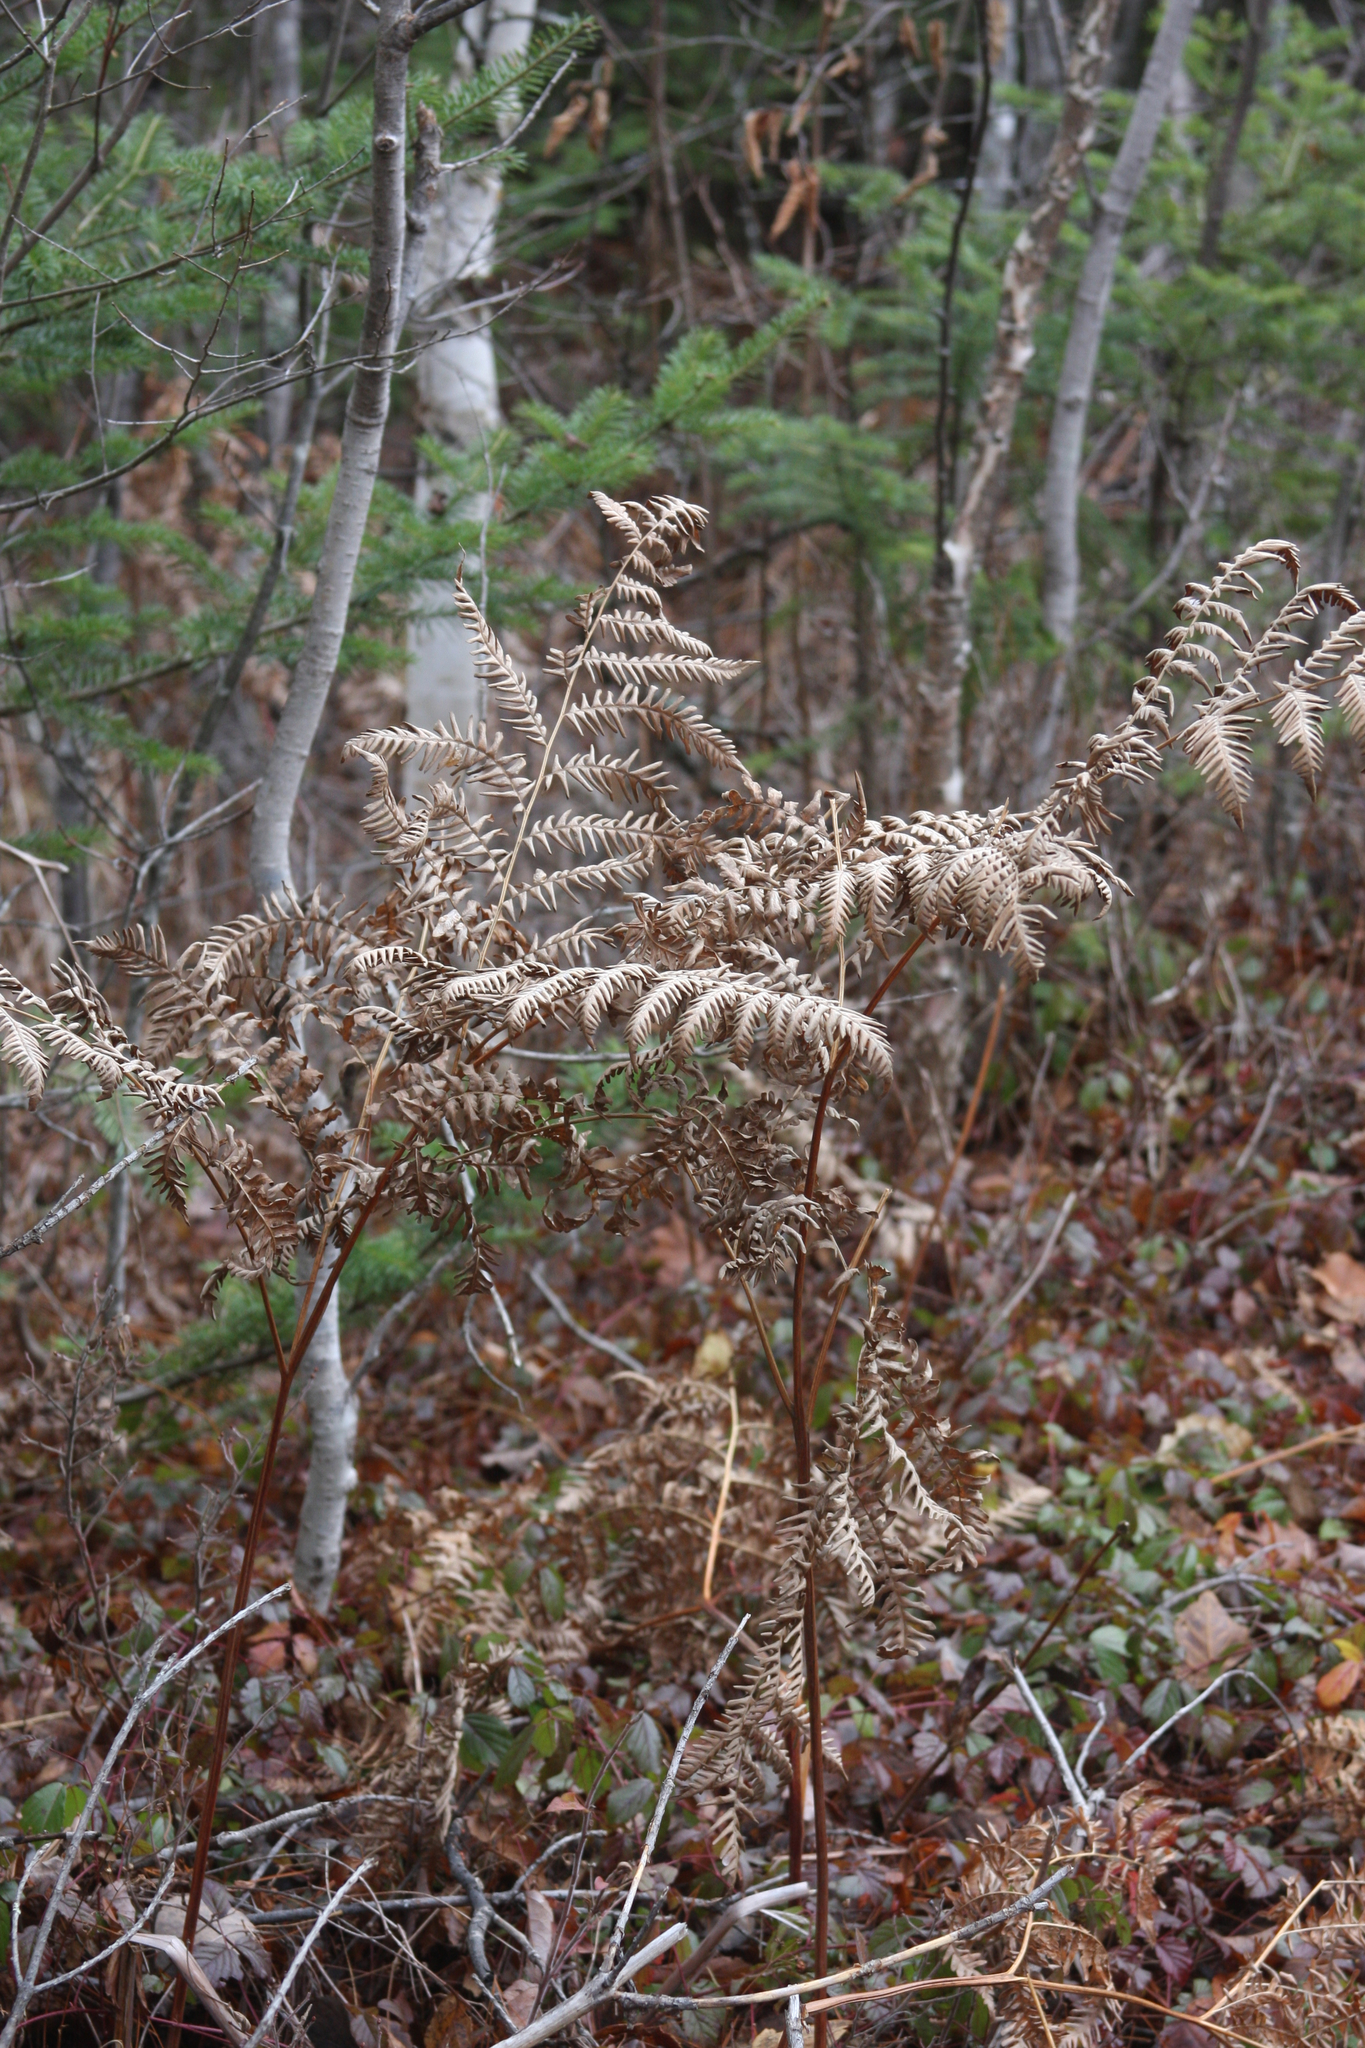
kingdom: Plantae
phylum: Tracheophyta
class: Polypodiopsida
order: Polypodiales
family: Dennstaedtiaceae
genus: Pteridium
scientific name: Pteridium aquilinum
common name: Bracken
